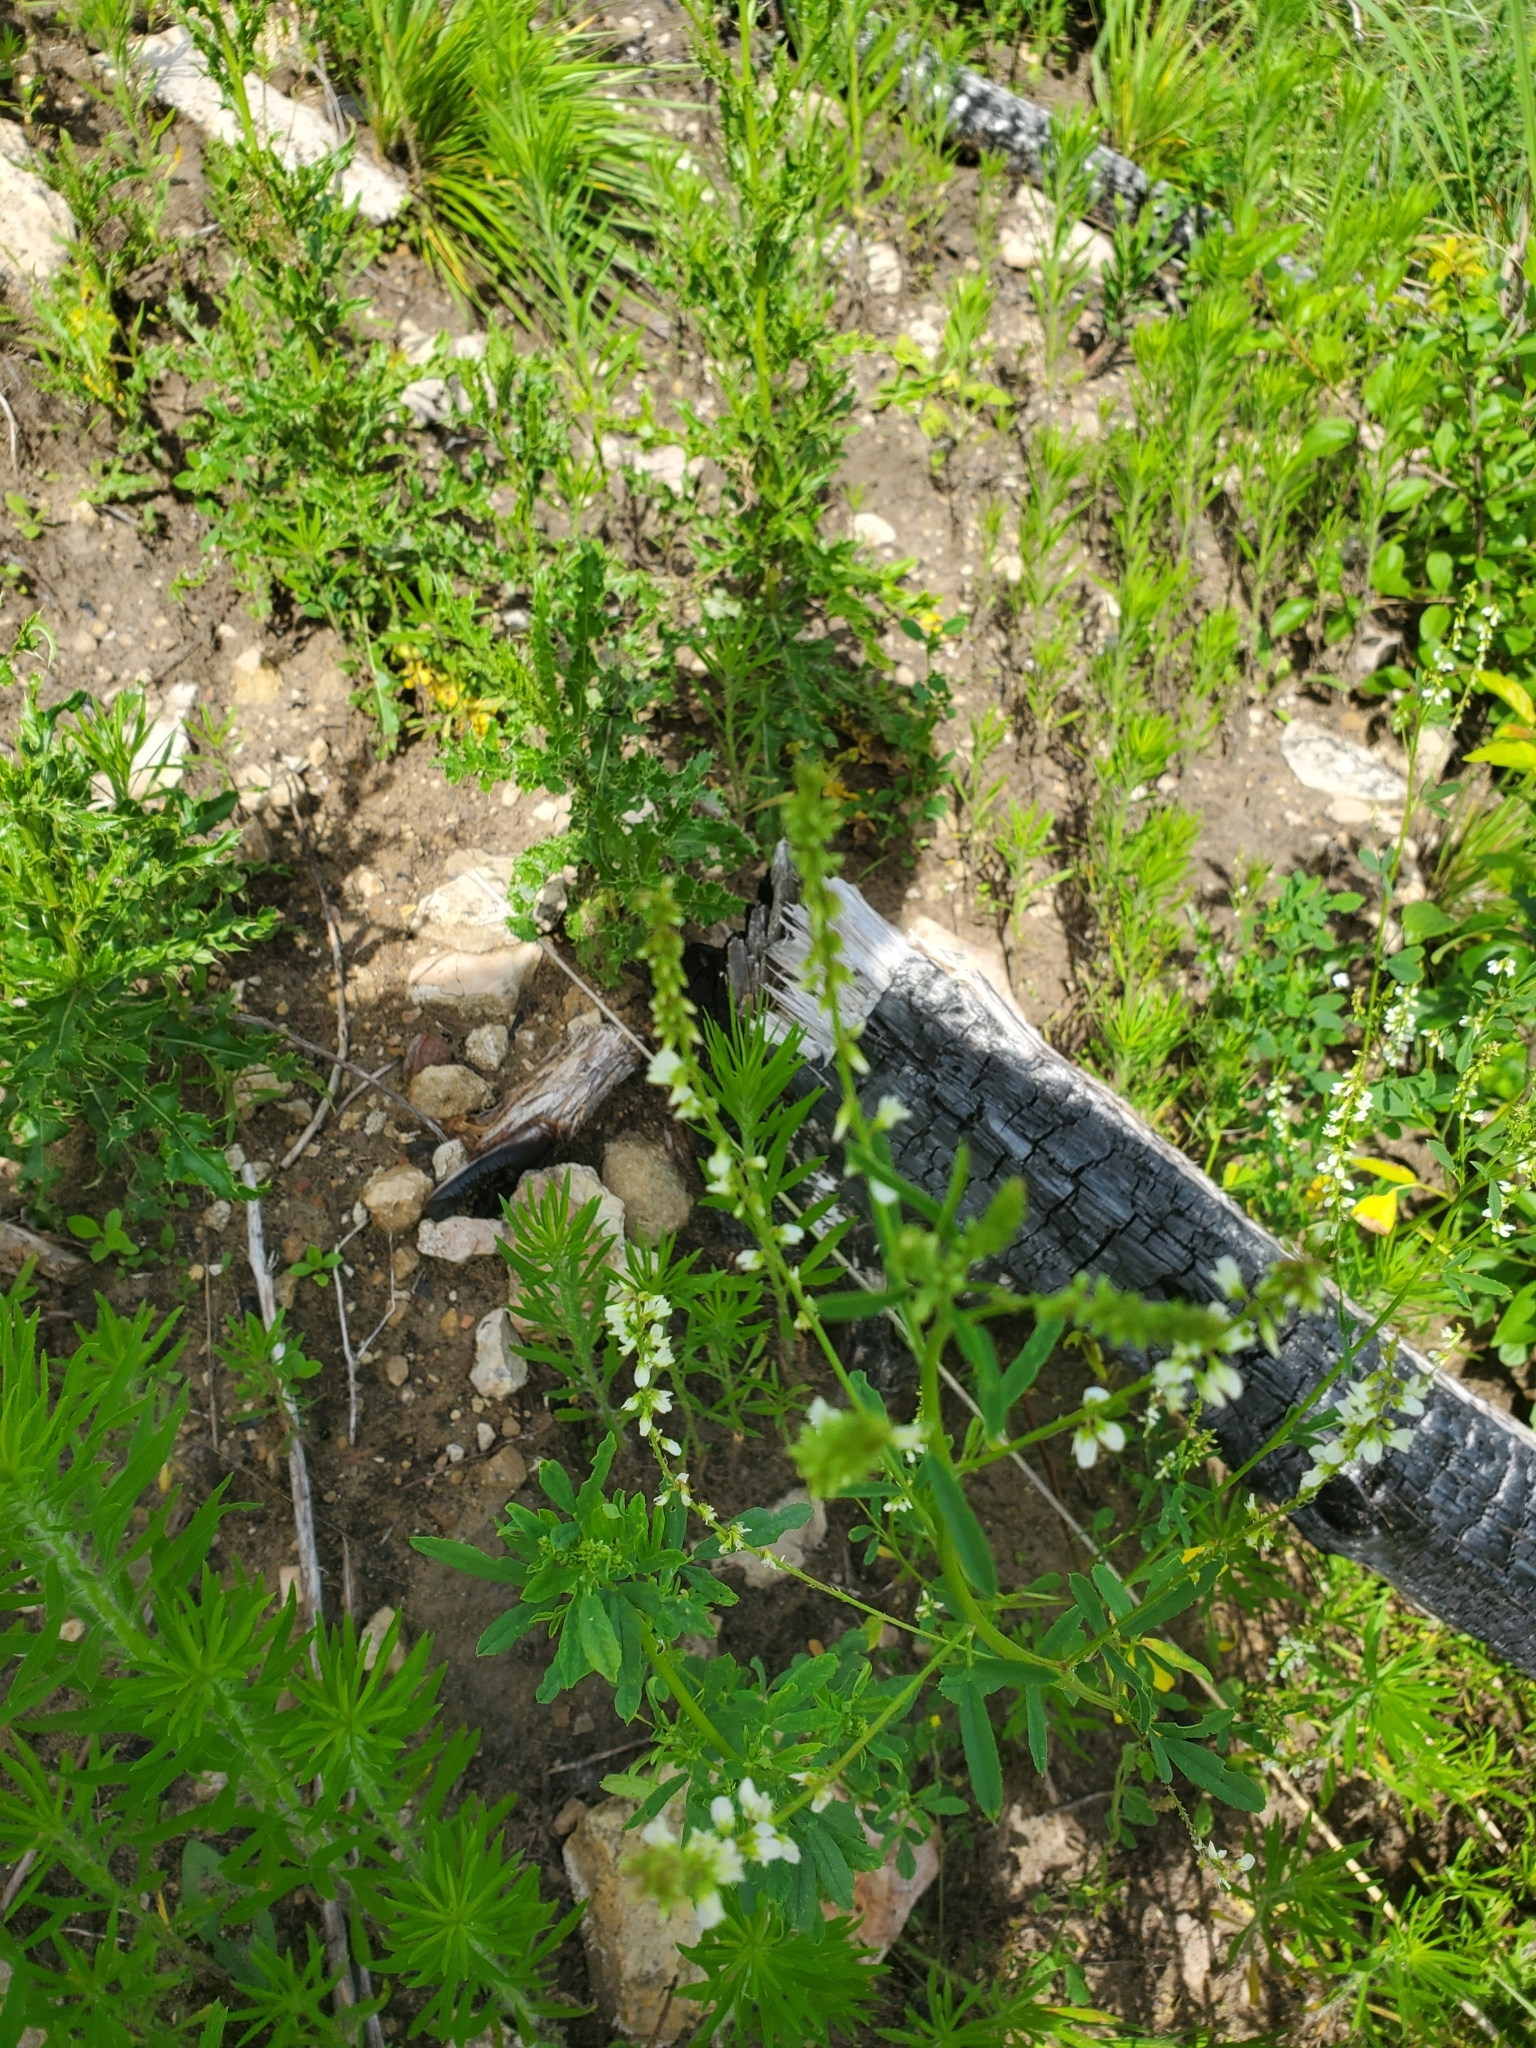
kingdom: Plantae
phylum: Tracheophyta
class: Magnoliopsida
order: Fabales
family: Fabaceae
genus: Melilotus
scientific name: Melilotus albus
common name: White melilot
